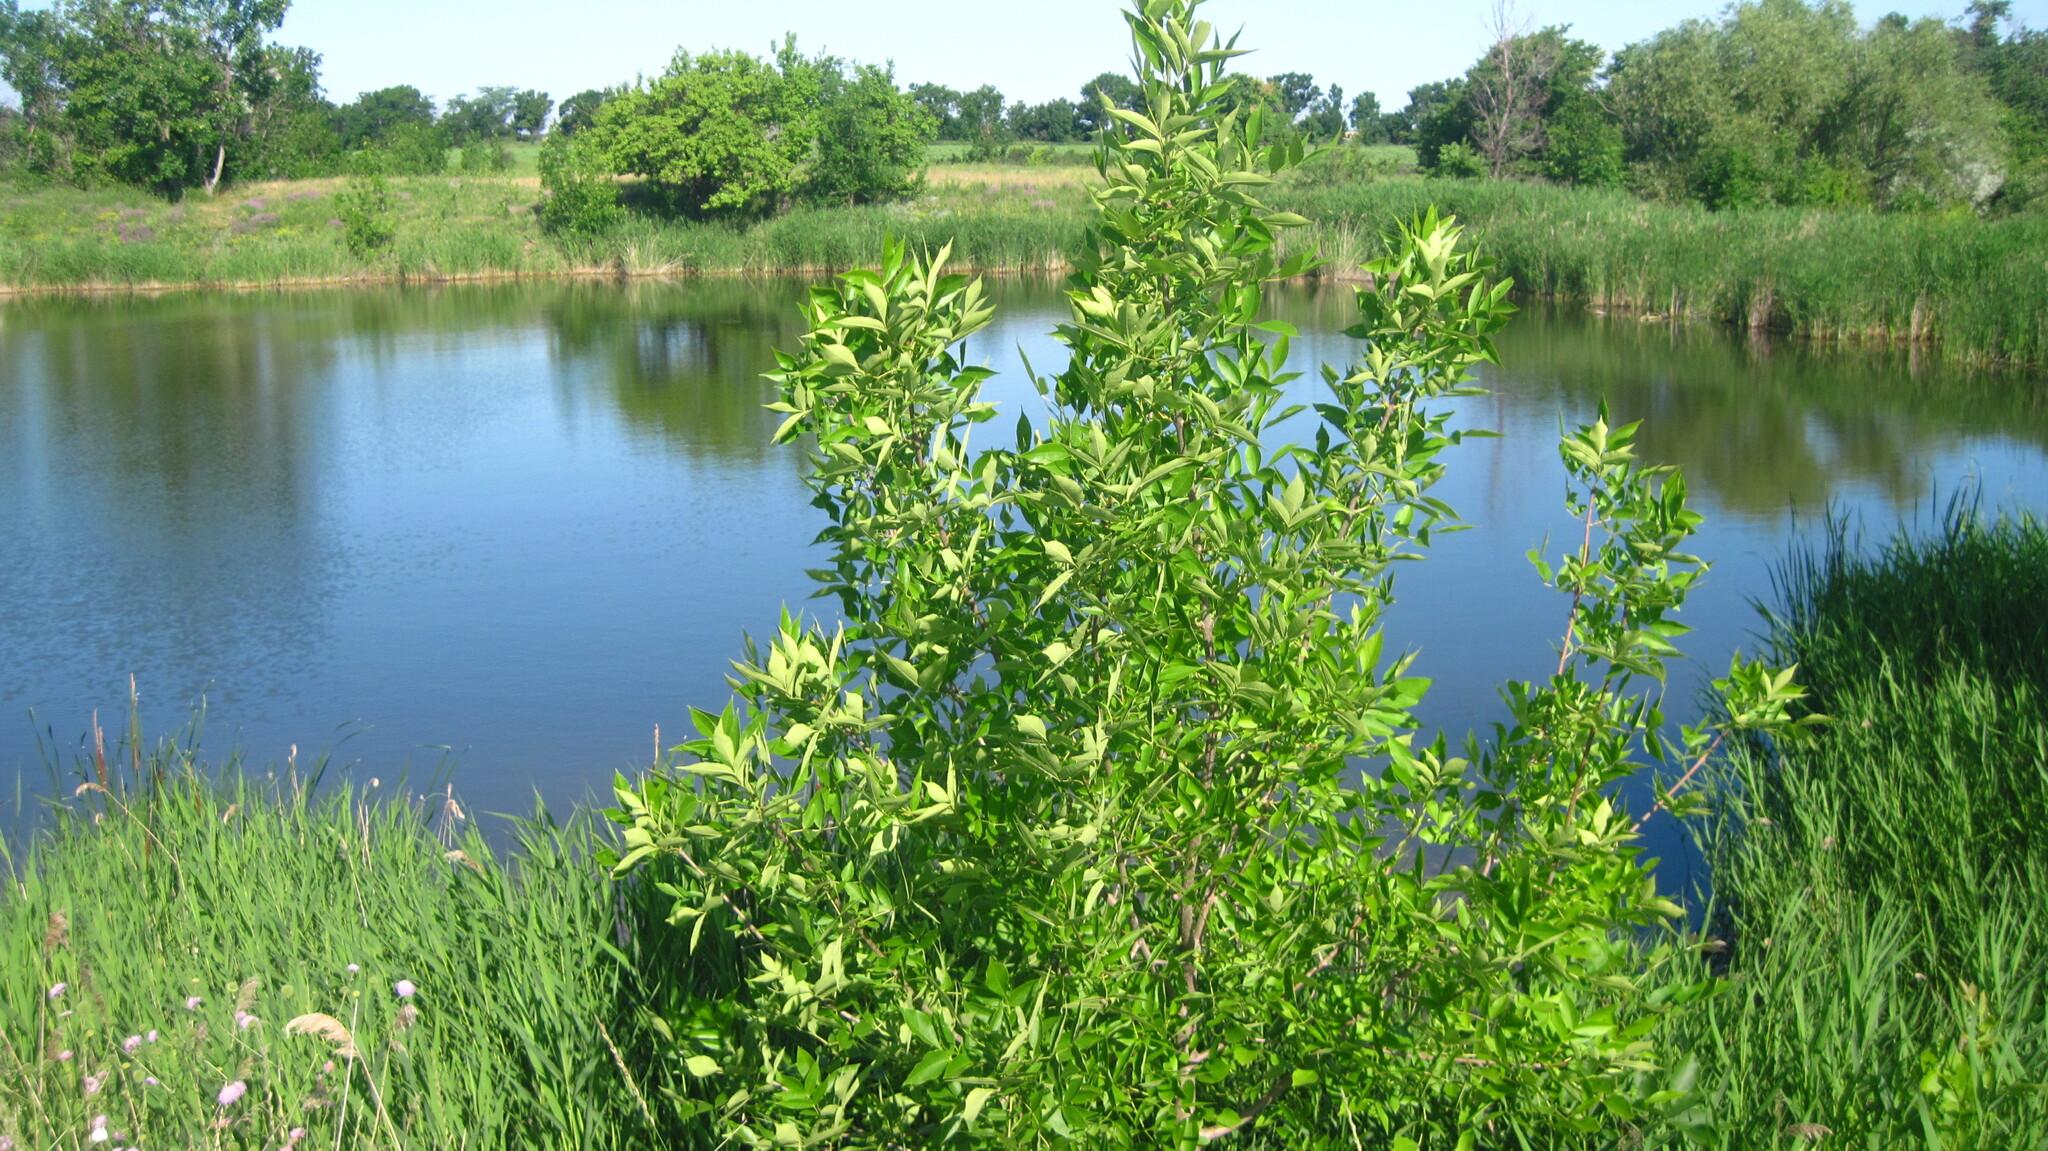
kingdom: Plantae
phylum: Tracheophyta
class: Magnoliopsida
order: Lamiales
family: Oleaceae
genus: Fraxinus
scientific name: Fraxinus pennsylvanica
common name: Green ash
